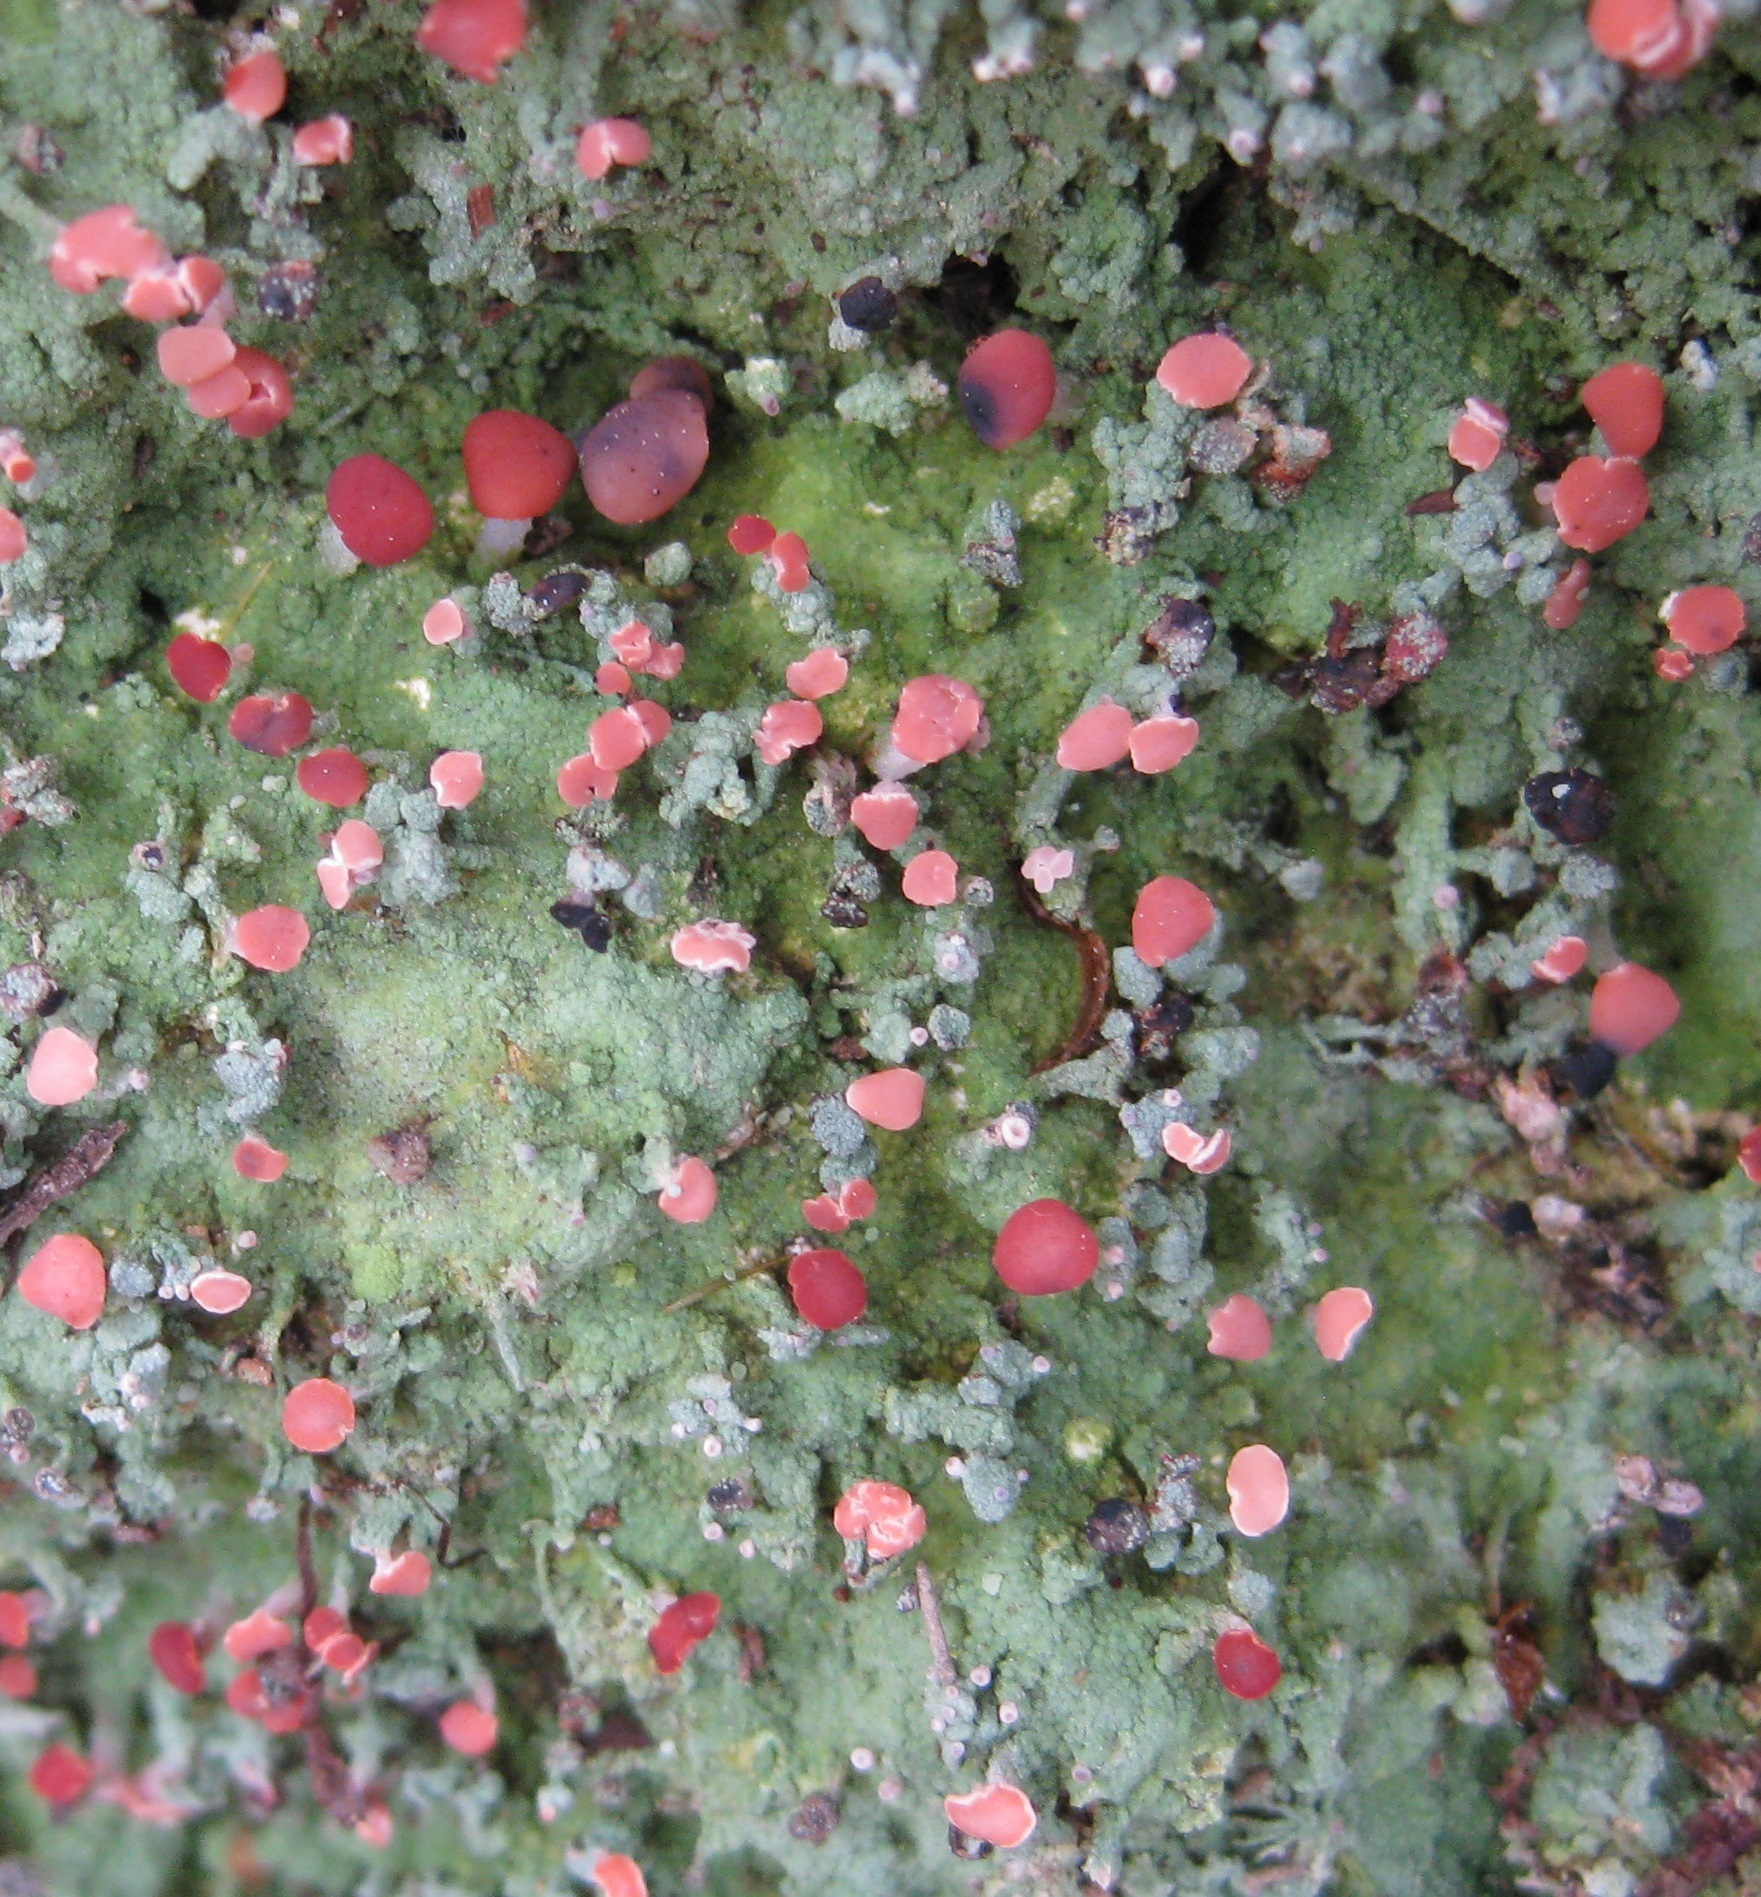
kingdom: Fungi
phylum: Ascomycota
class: Lecanoromycetes
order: Baeomycetales
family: Baeomycetaceae
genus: Baeomyces
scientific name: Baeomyces heteromorphus
